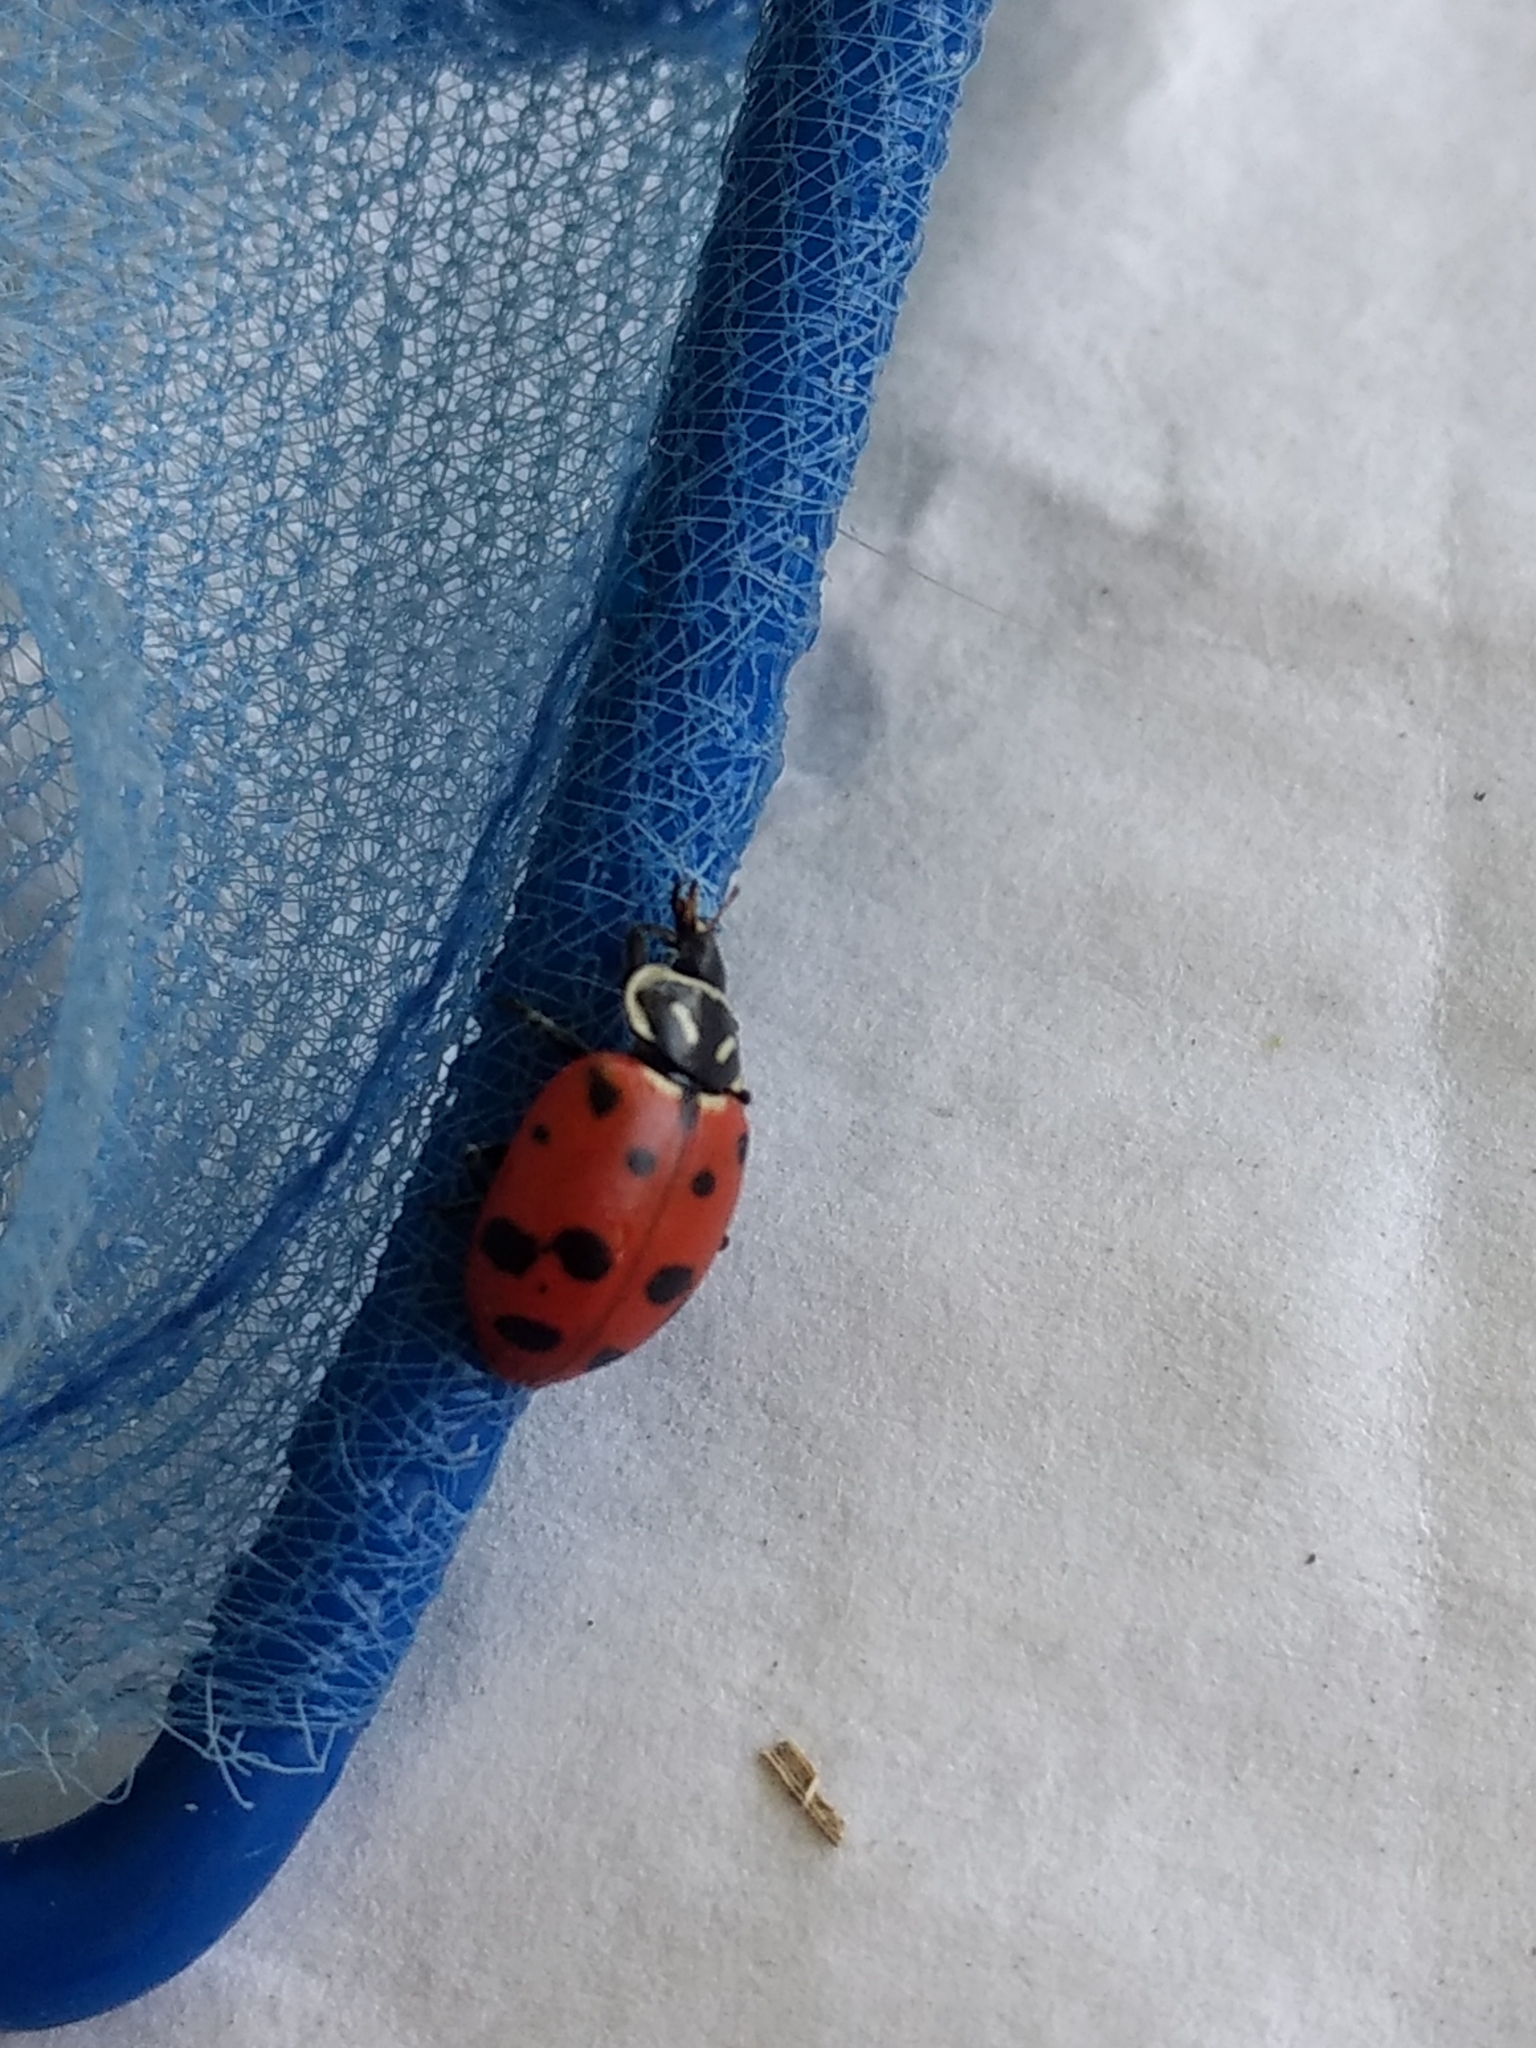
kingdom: Animalia
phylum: Arthropoda
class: Insecta
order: Coleoptera
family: Coccinellidae
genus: Hippodamia
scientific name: Hippodamia convergens
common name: Convergent lady beetle
